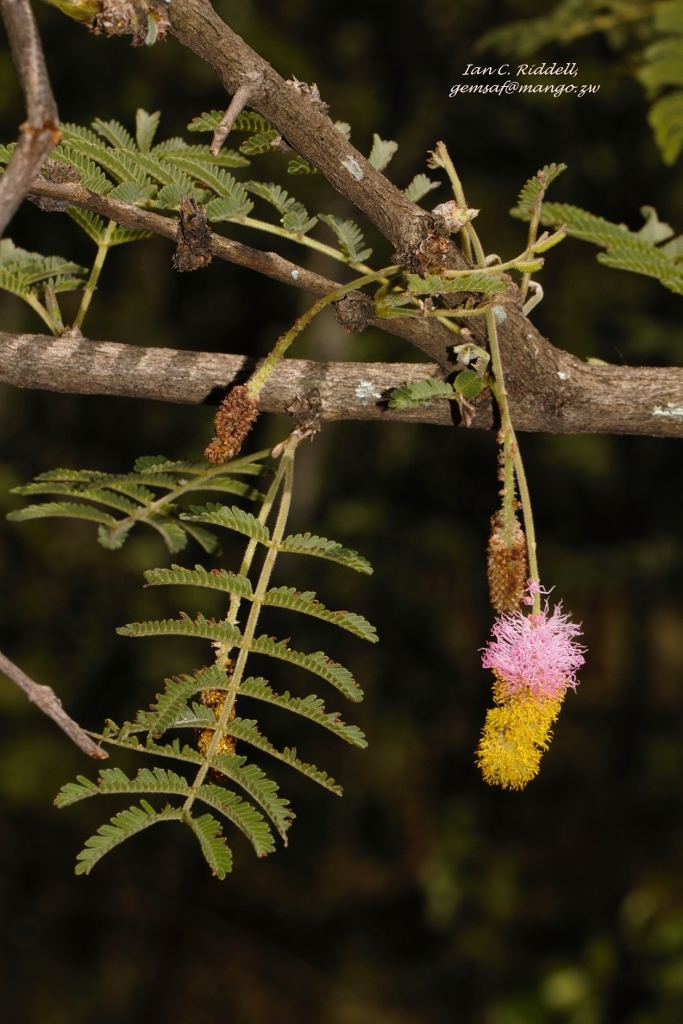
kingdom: Plantae
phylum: Tracheophyta
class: Magnoliopsida
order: Fabales
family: Fabaceae
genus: Dichrostachys
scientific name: Dichrostachys cinerea
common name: Sicklebush
